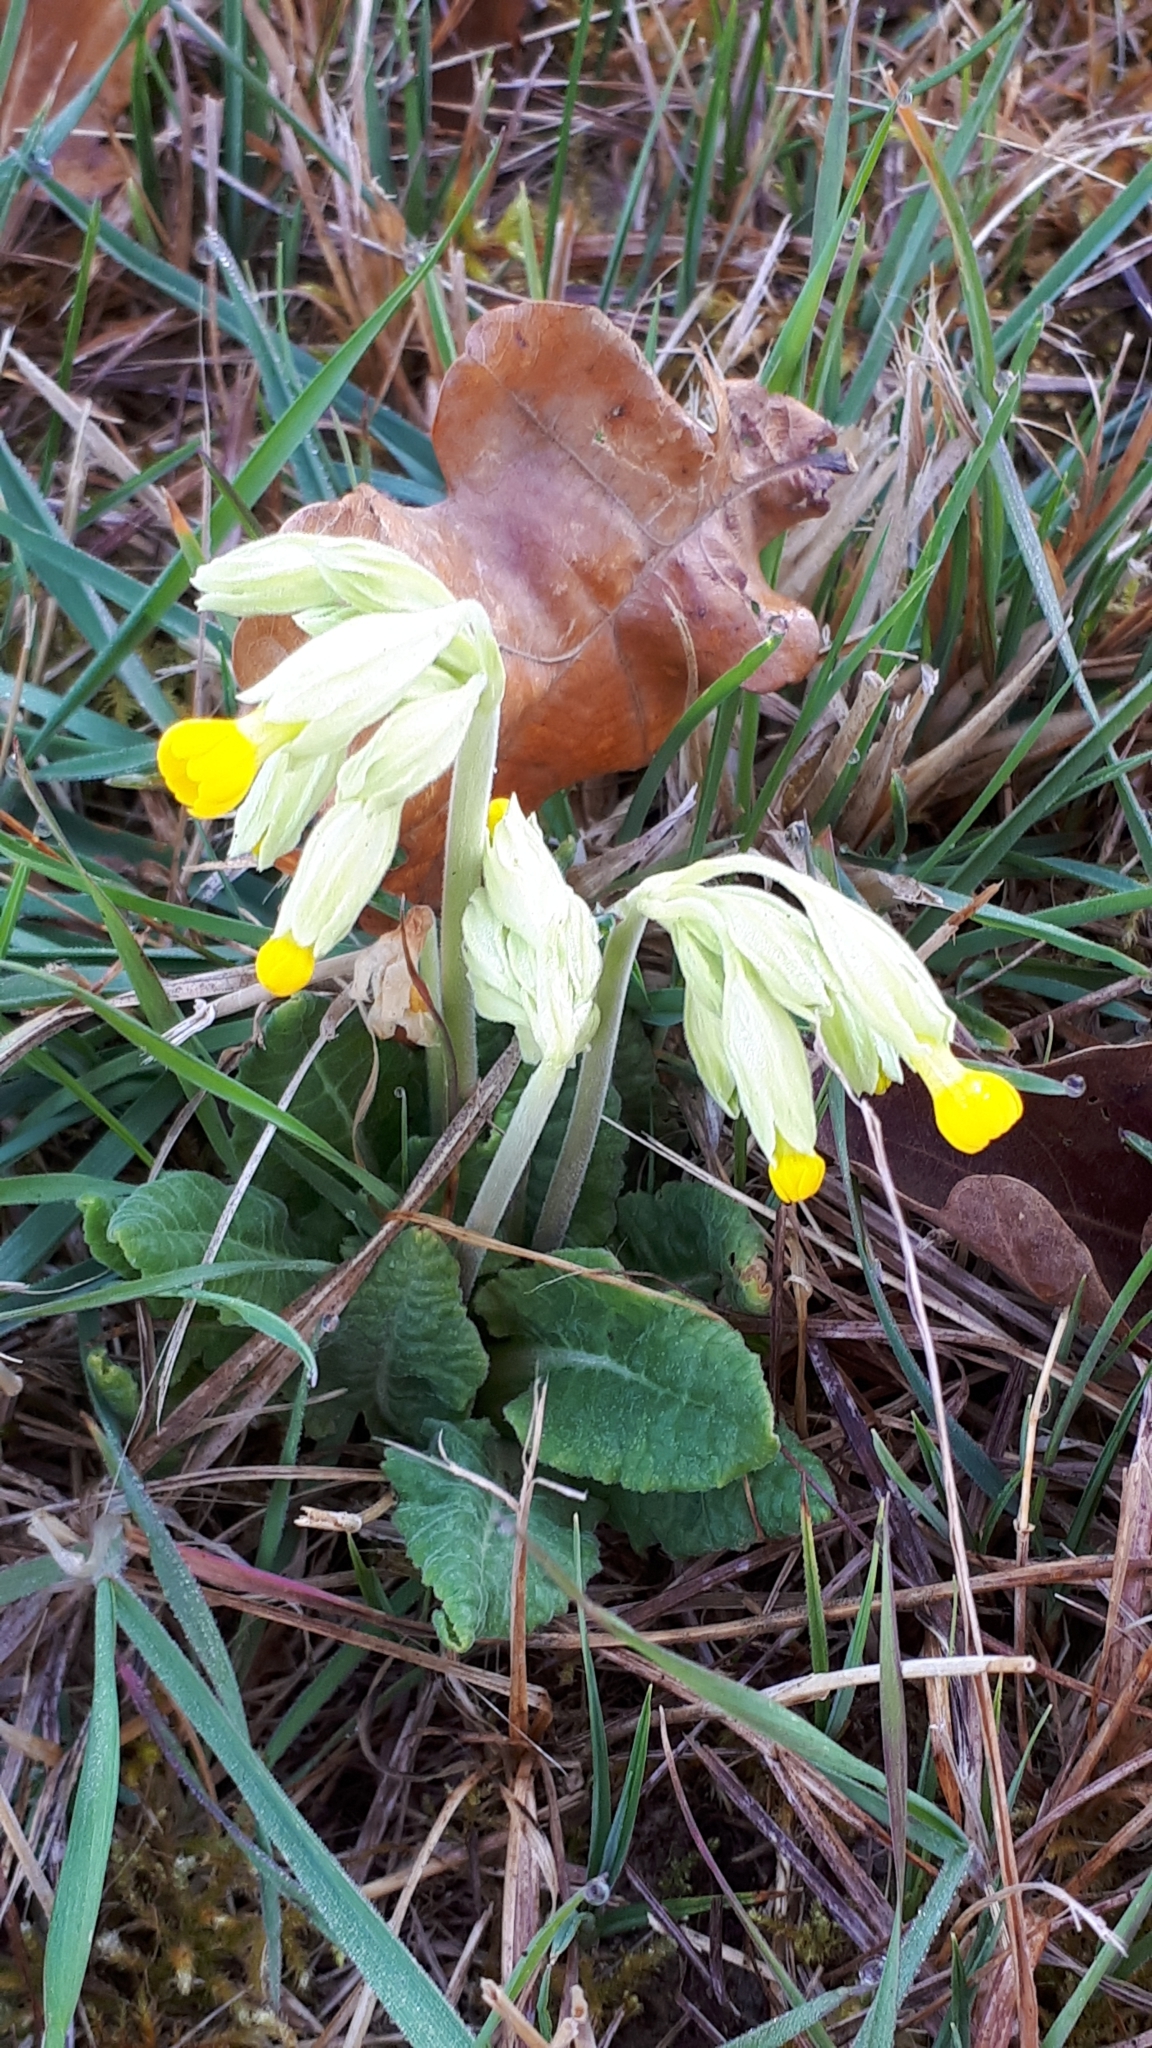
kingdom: Plantae
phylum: Tracheophyta
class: Magnoliopsida
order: Ericales
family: Primulaceae
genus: Primula
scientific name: Primula veris
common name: Cowslip
